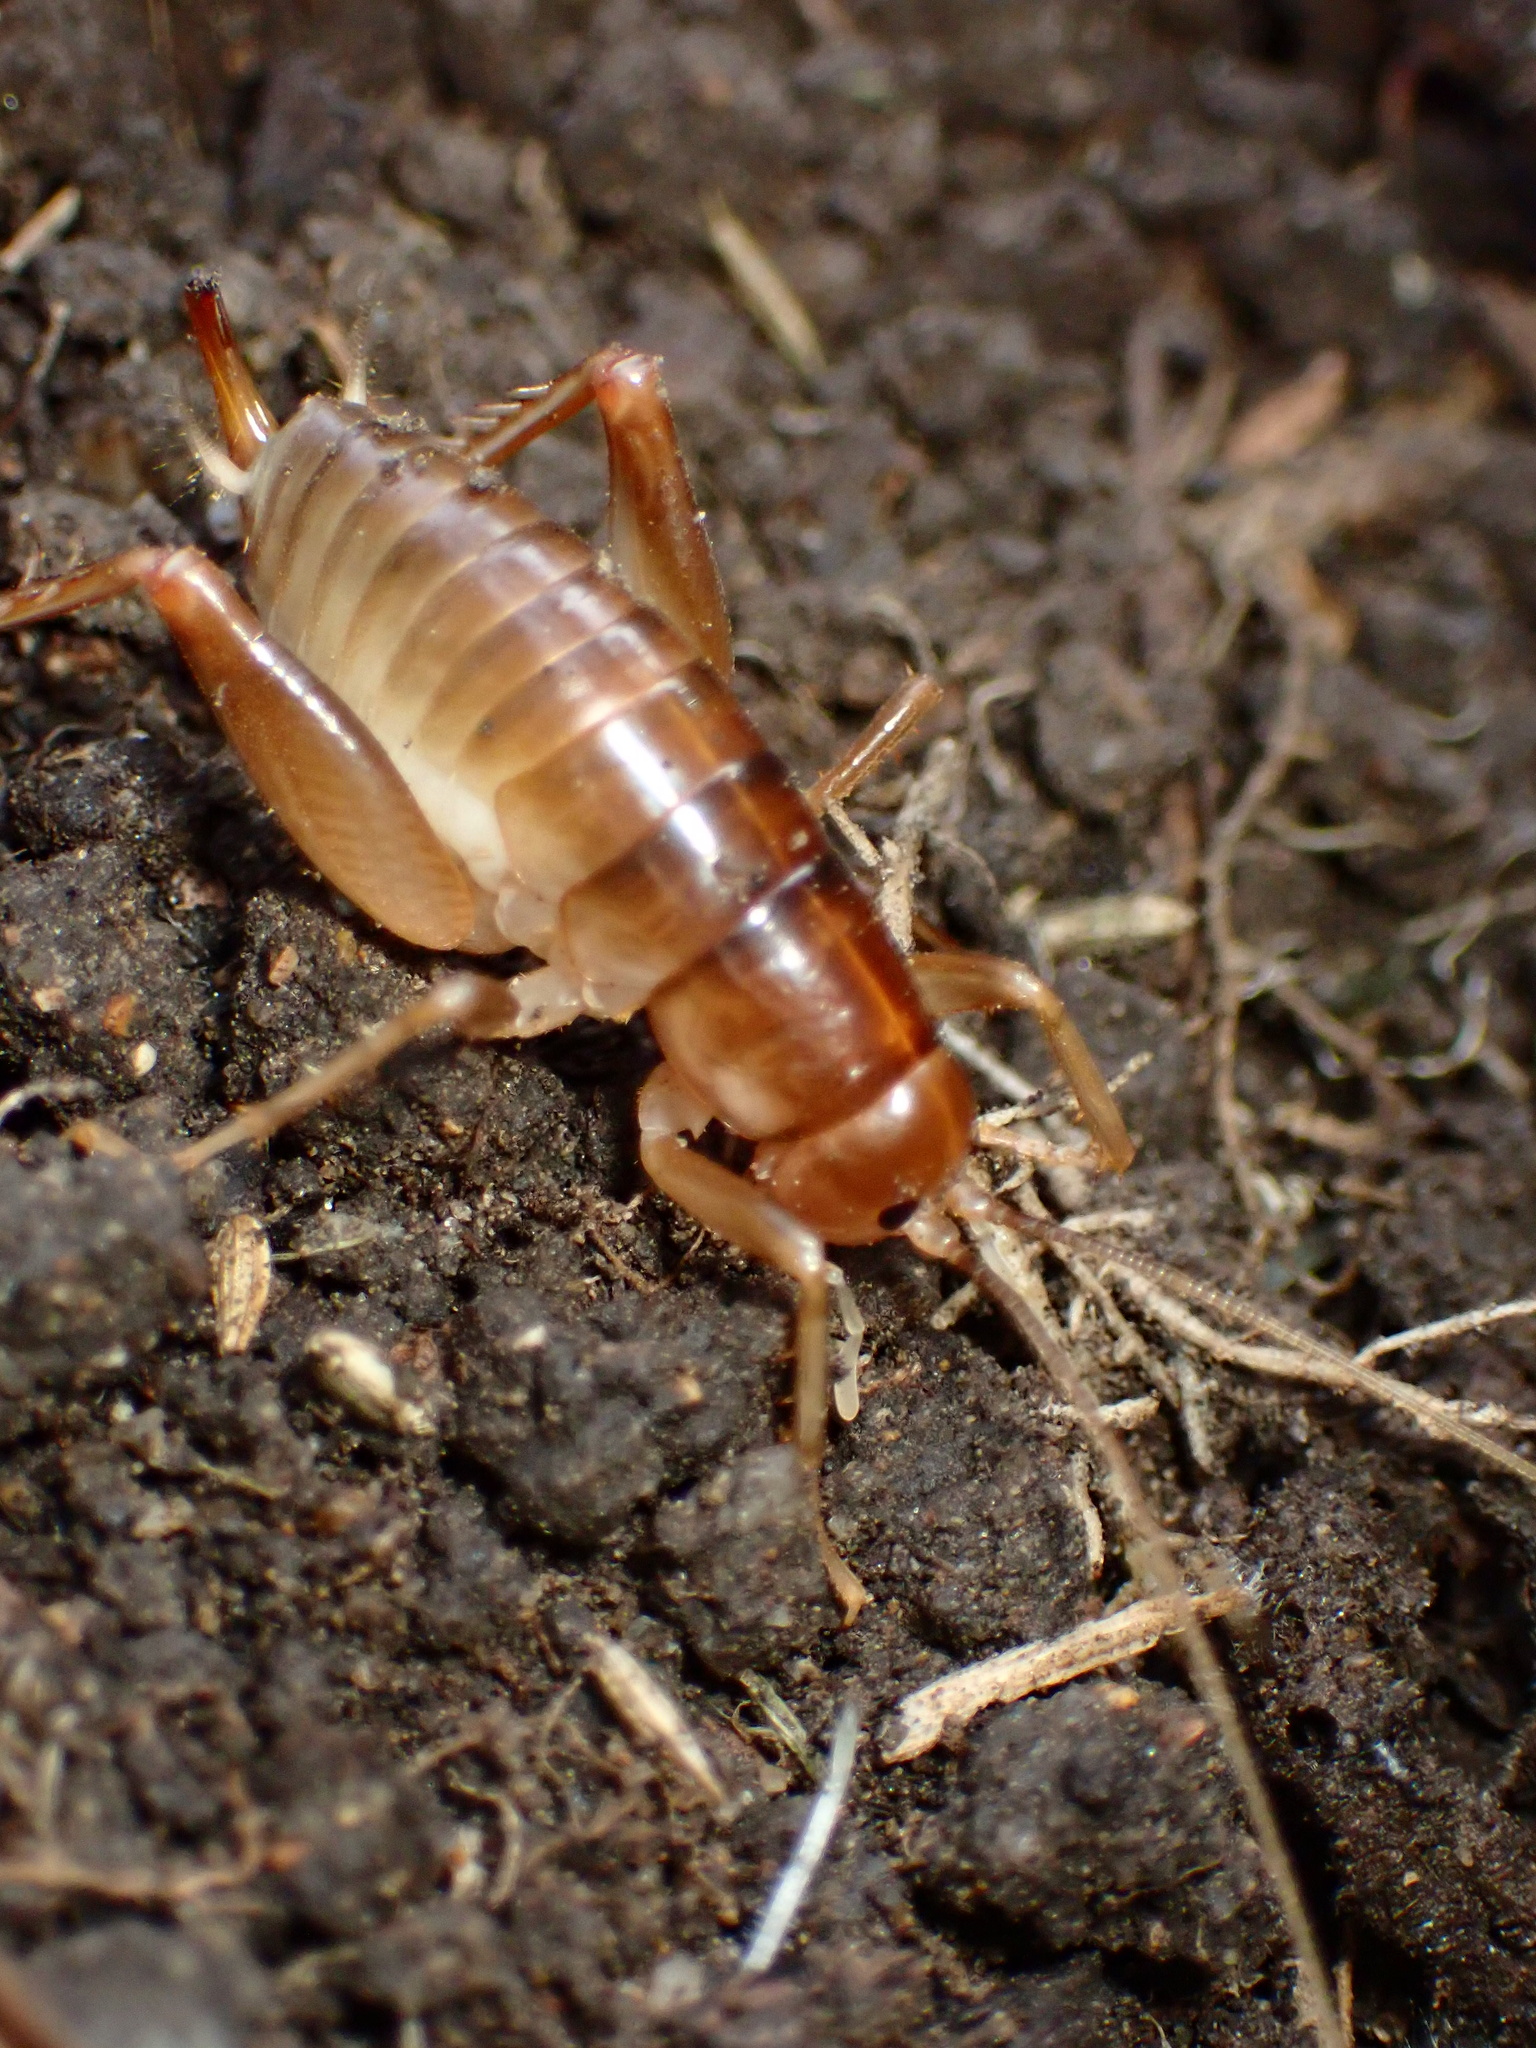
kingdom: Animalia
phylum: Arthropoda
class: Insecta
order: Orthoptera
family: Rhaphidophoridae
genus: Ceuthophilus
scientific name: Ceuthophilus californianus
